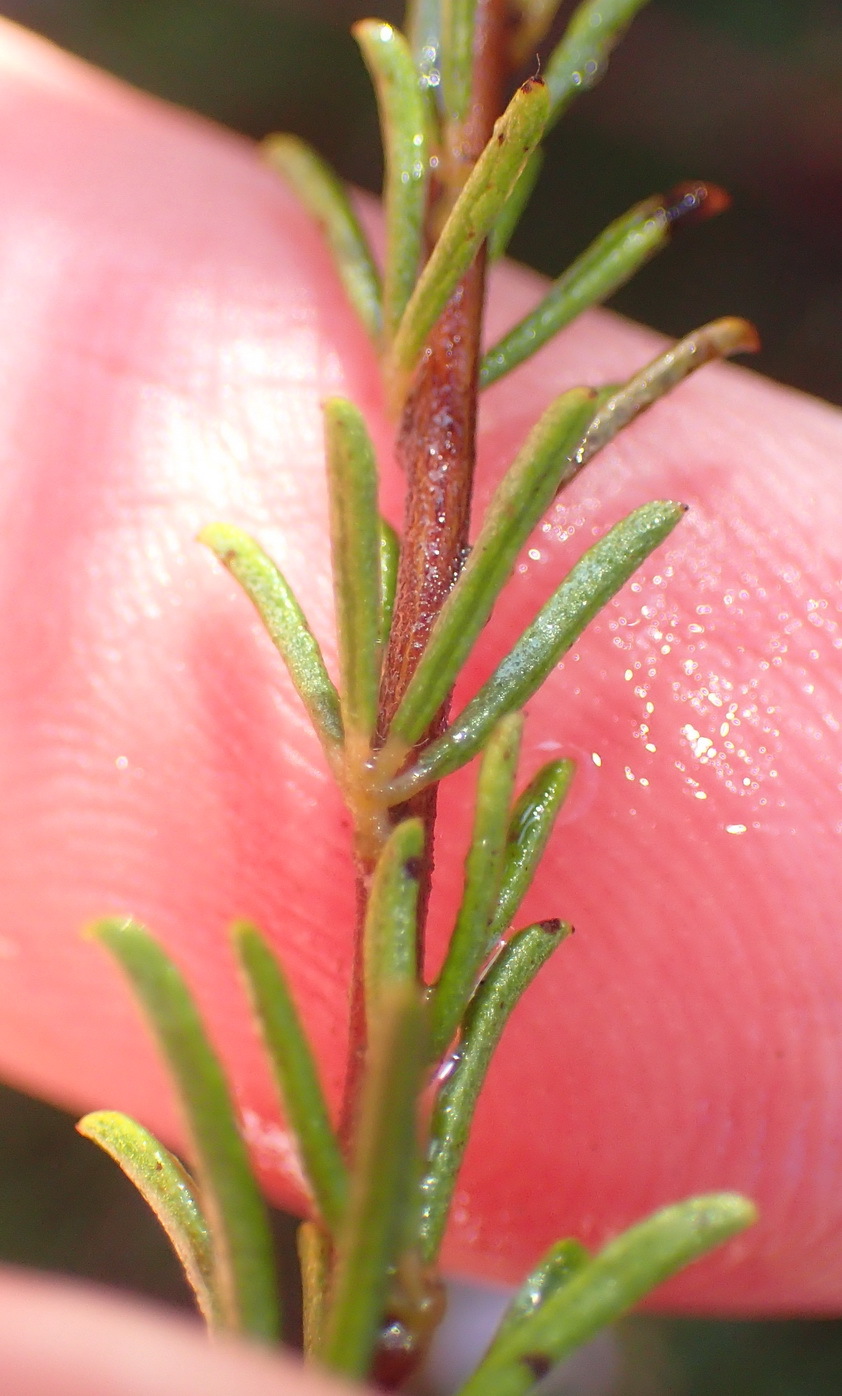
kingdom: Plantae
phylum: Tracheophyta
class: Magnoliopsida
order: Fabales
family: Fabaceae
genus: Indigofera
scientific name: Indigofera pappei
